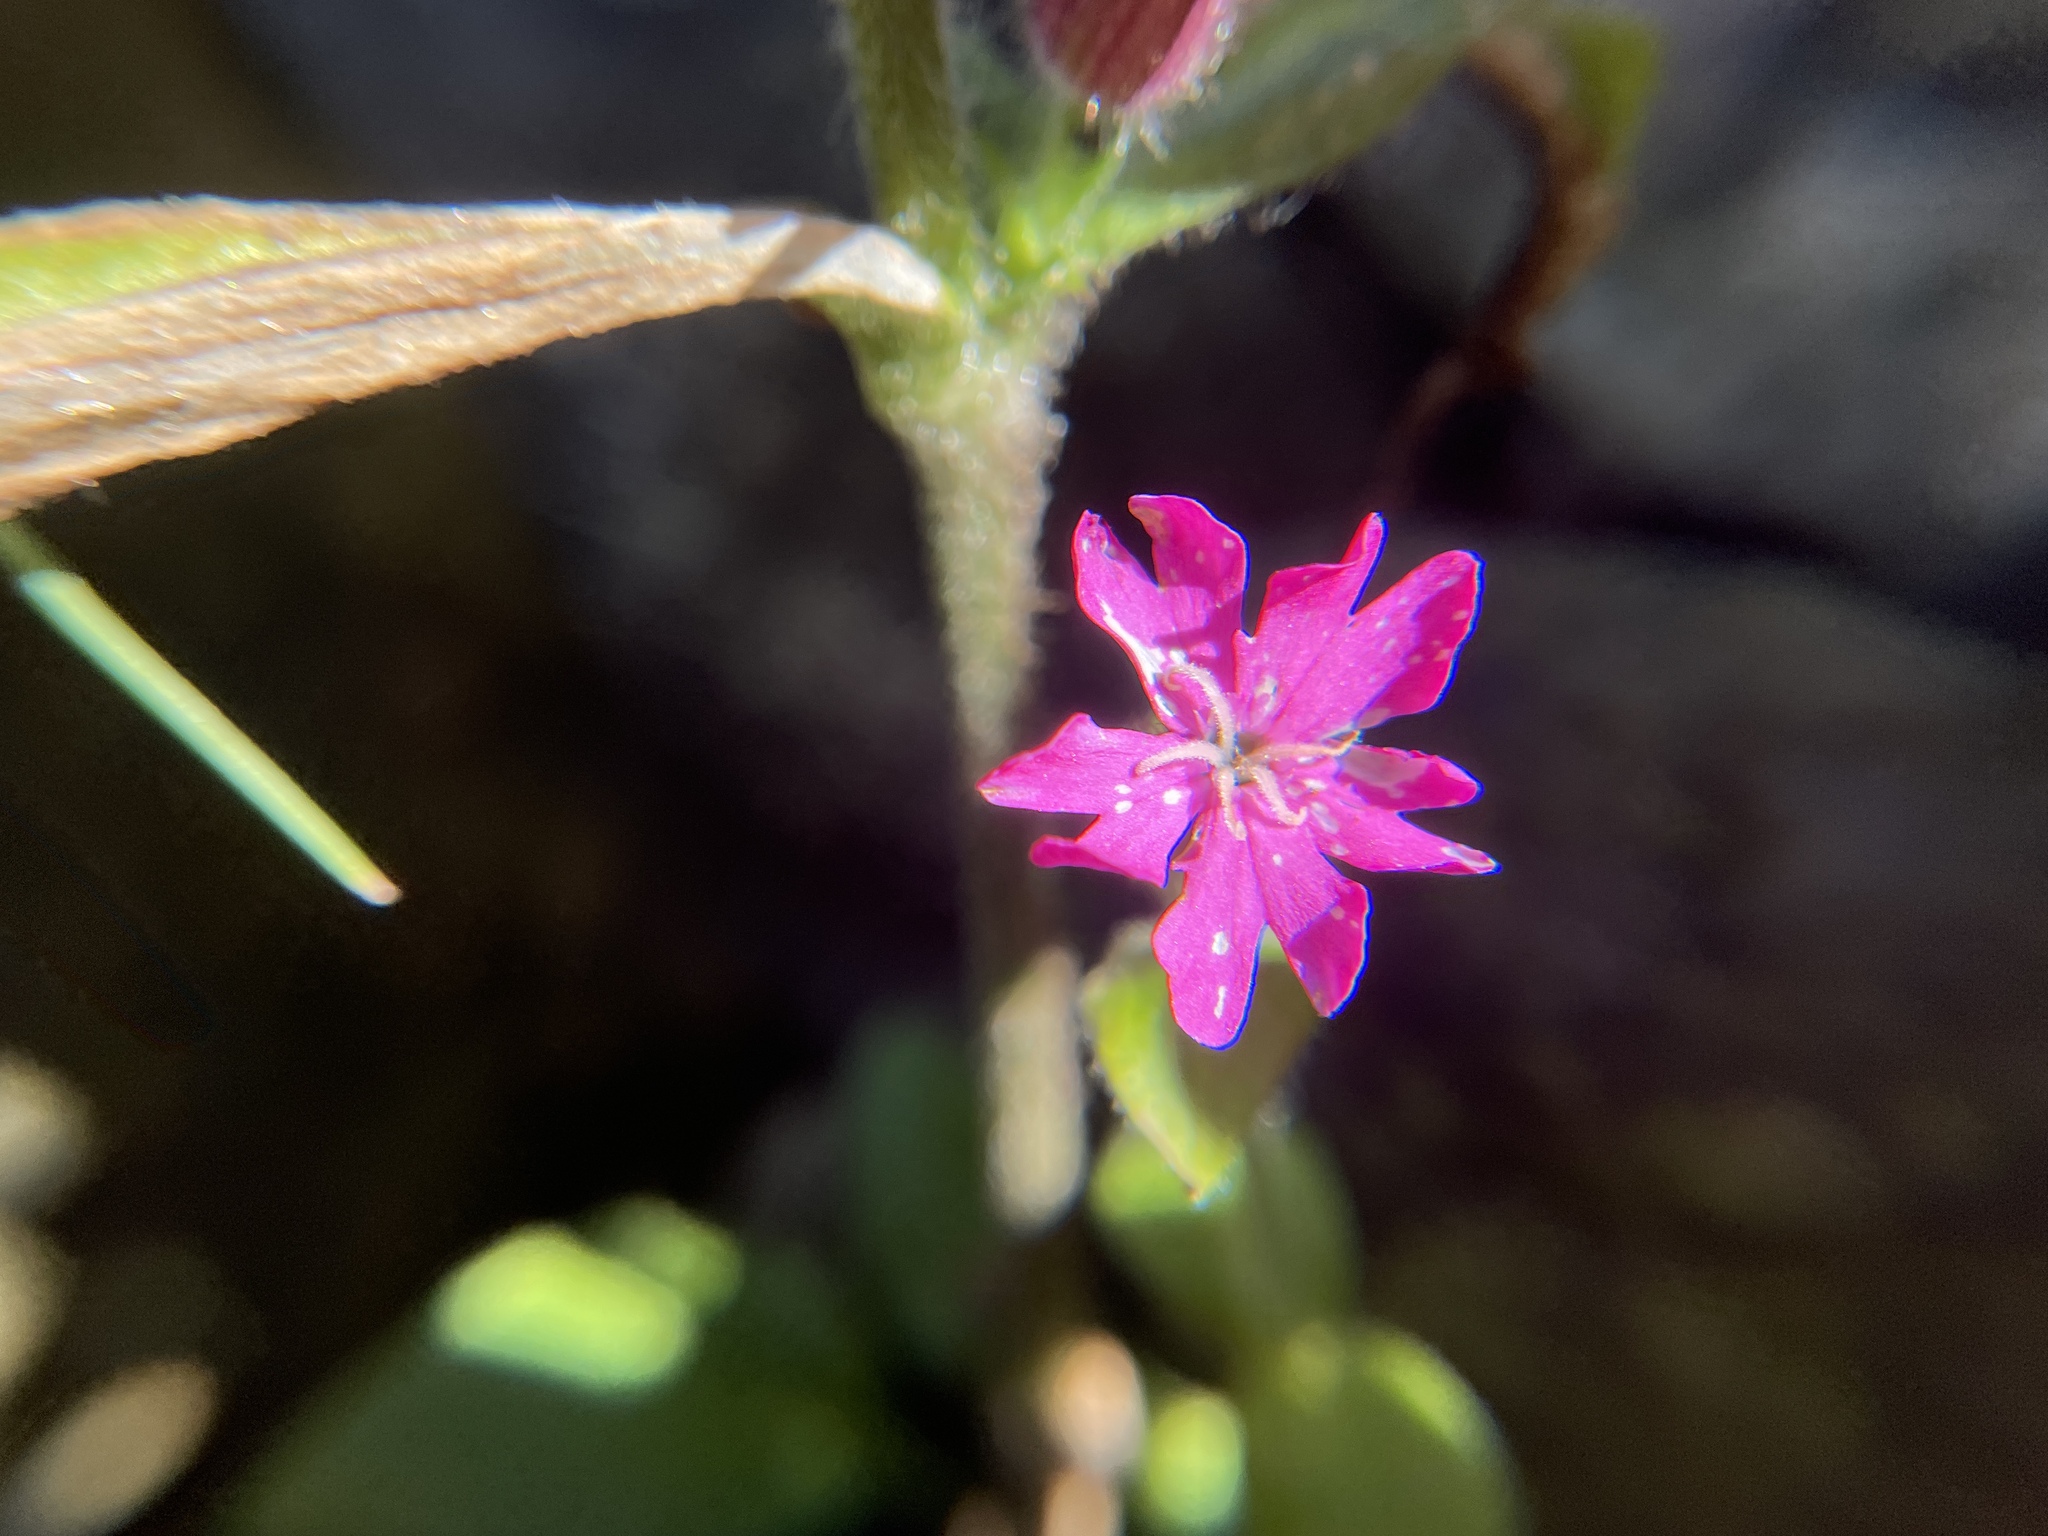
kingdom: Plantae
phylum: Tracheophyta
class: Magnoliopsida
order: Caryophyllales
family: Caryophyllaceae
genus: Silene
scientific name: Silene dioica
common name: Red campion
